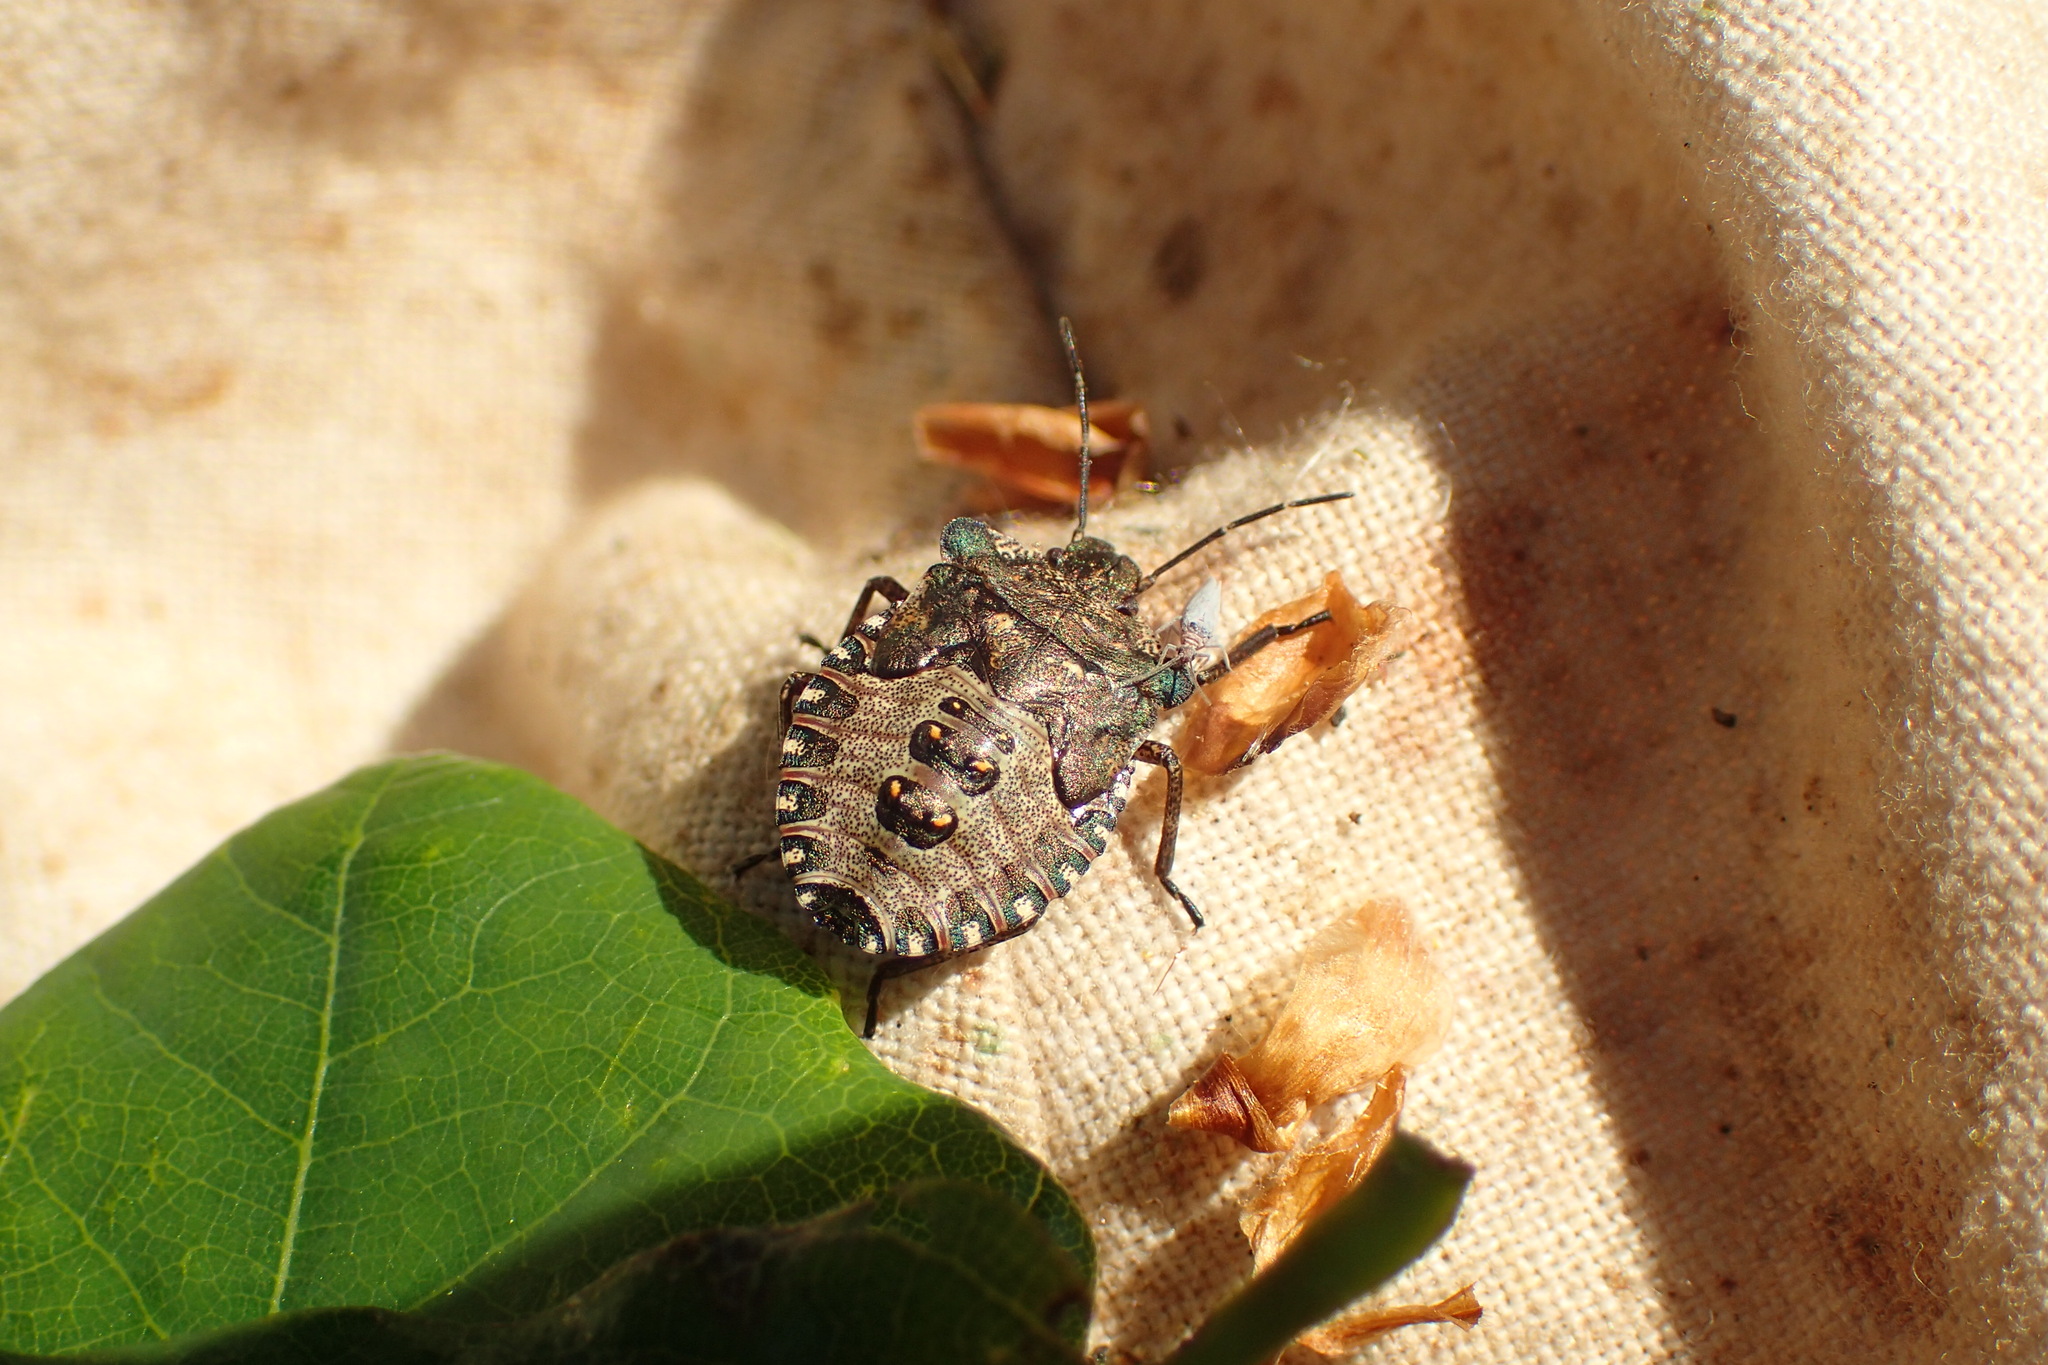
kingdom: Animalia
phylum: Arthropoda
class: Insecta
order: Hemiptera
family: Pentatomidae
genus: Pentatoma
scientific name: Pentatoma rufipes
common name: Forest bug
